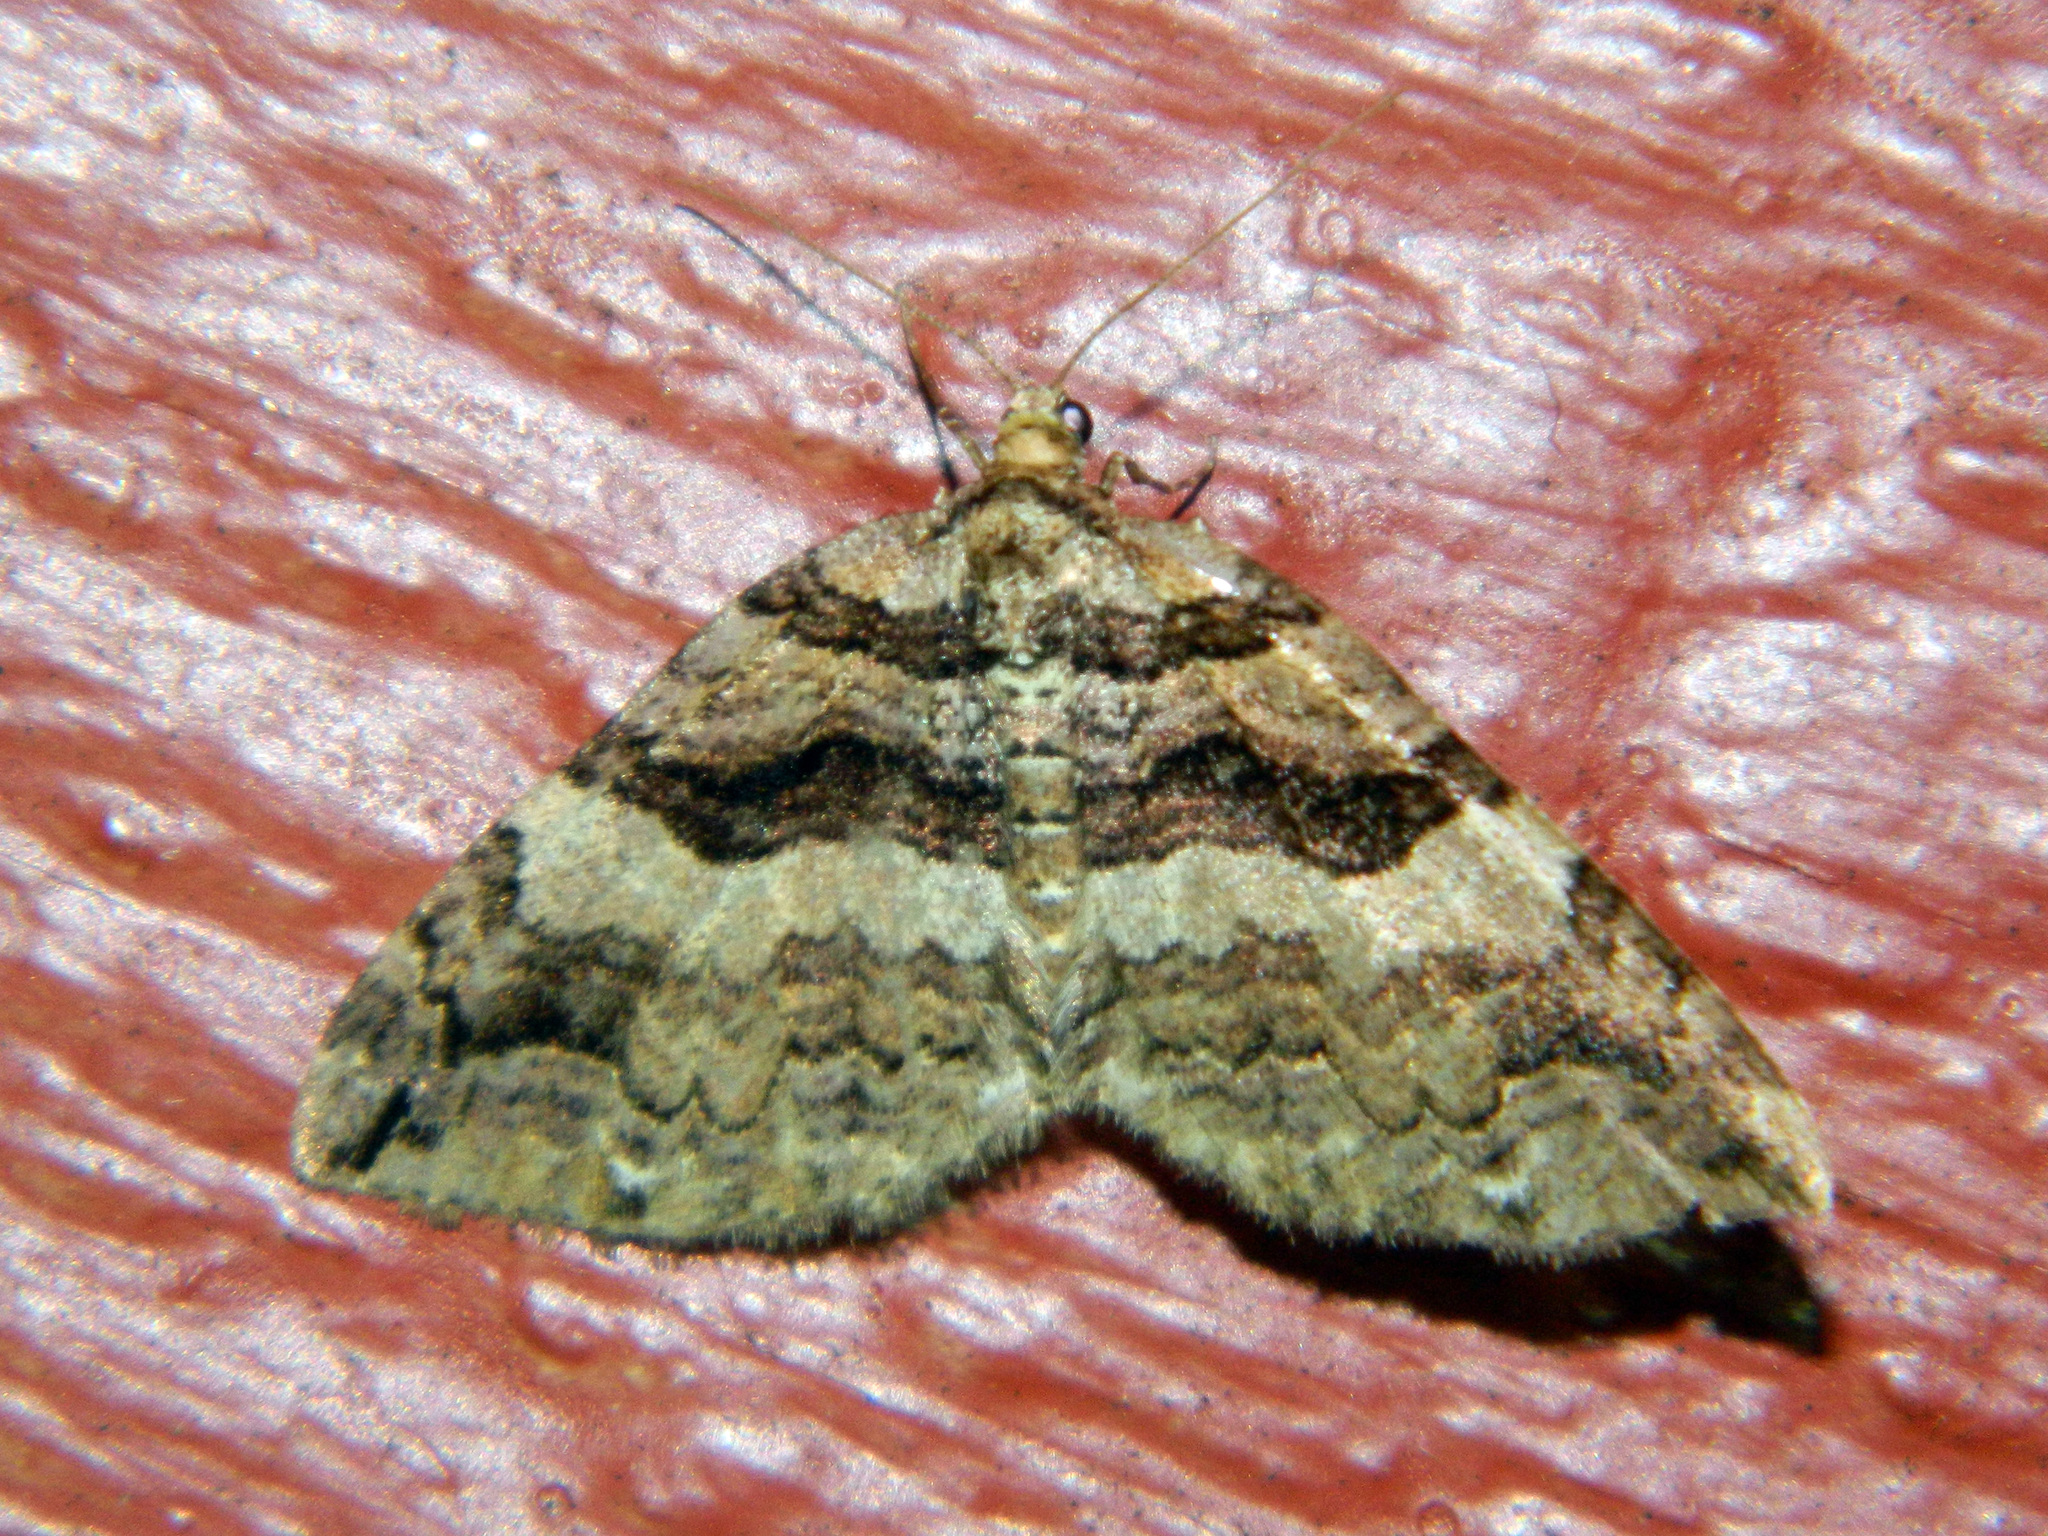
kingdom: Animalia
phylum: Arthropoda
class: Insecta
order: Lepidoptera
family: Geometridae
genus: Anticlea
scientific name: Anticlea vasiliata
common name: Variable carpet
